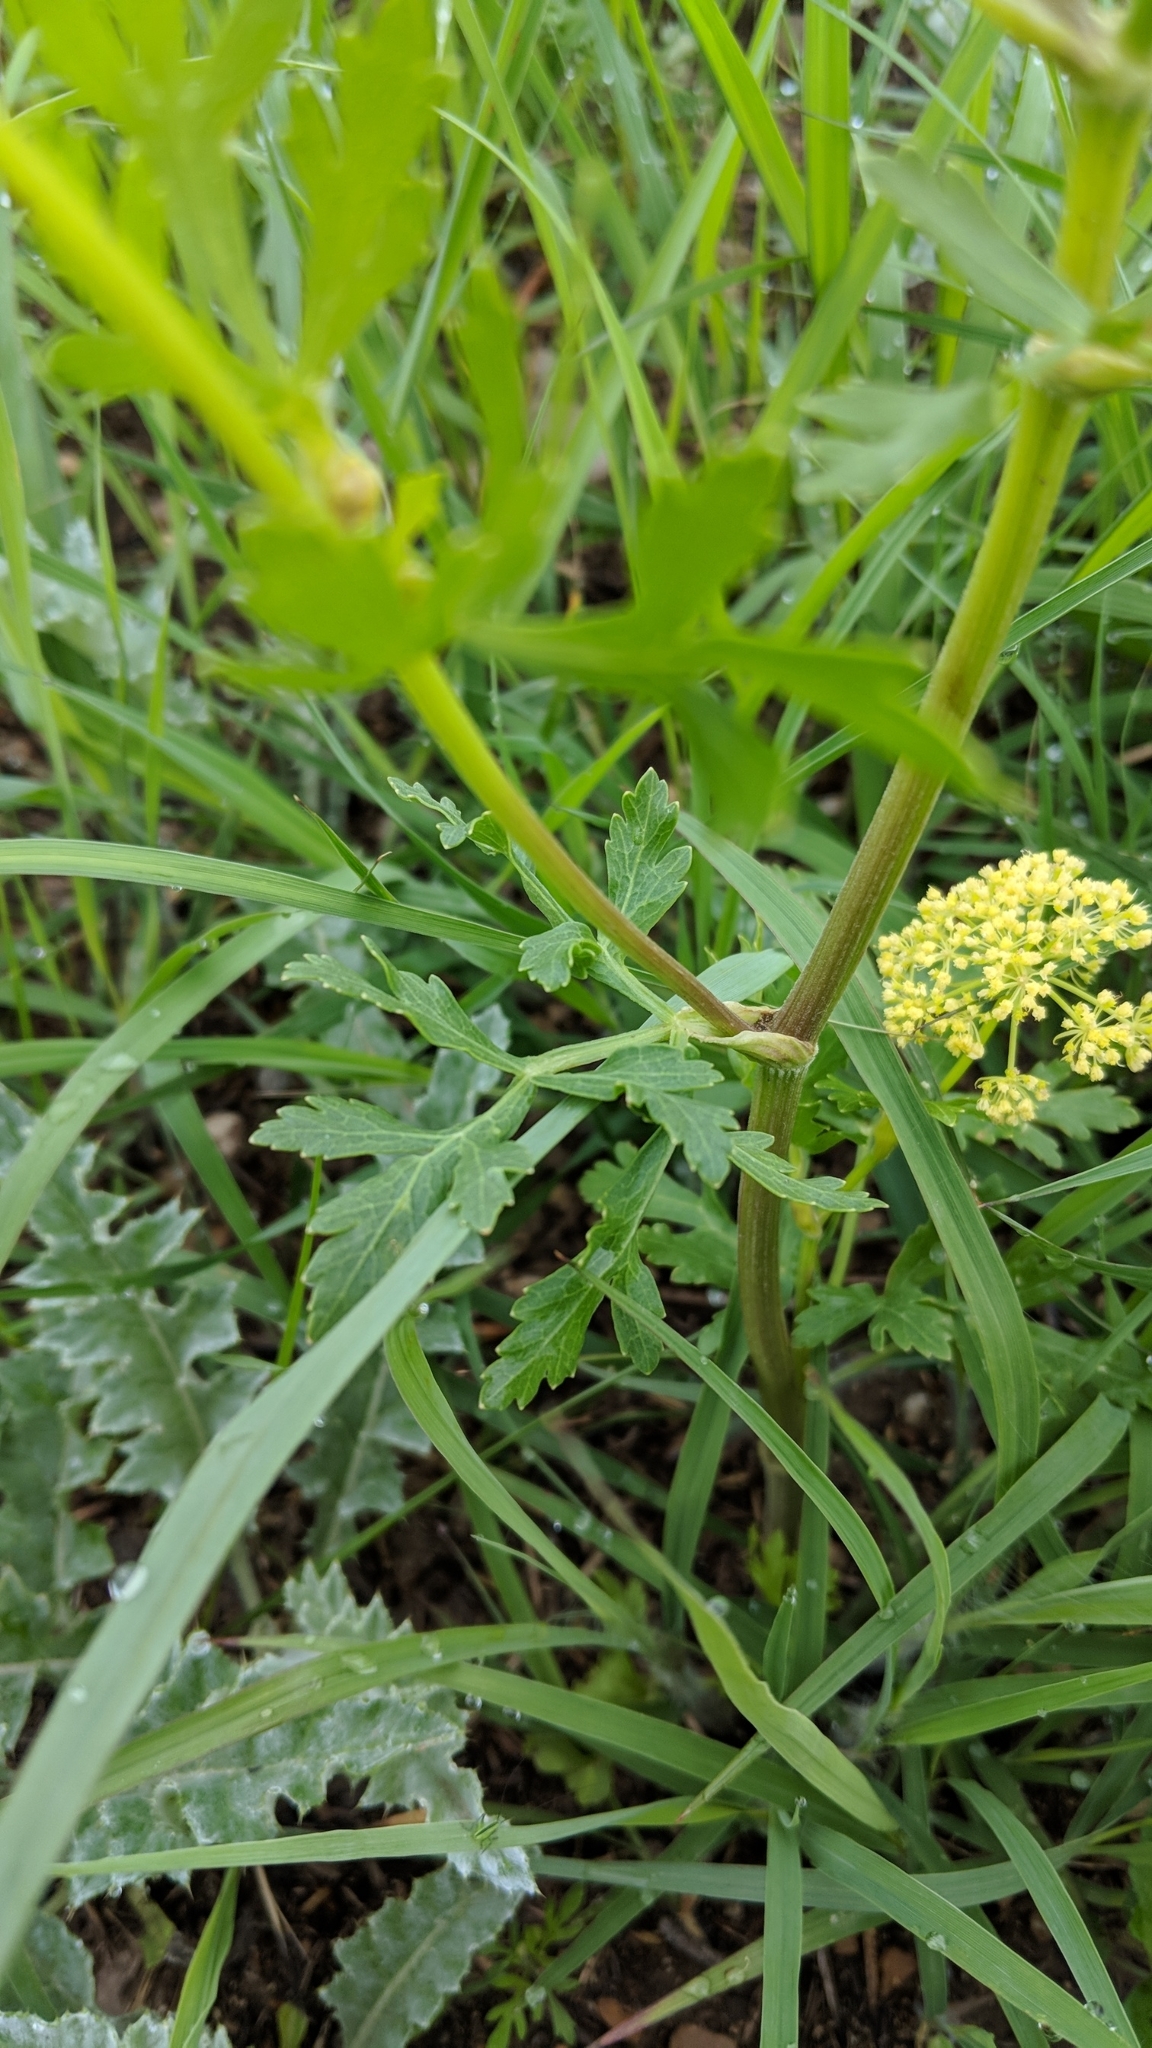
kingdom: Plantae
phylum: Tracheophyta
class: Magnoliopsida
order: Apiales
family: Apiaceae
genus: Polytaenia
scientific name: Polytaenia nuttallii
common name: Prairie-parsley
